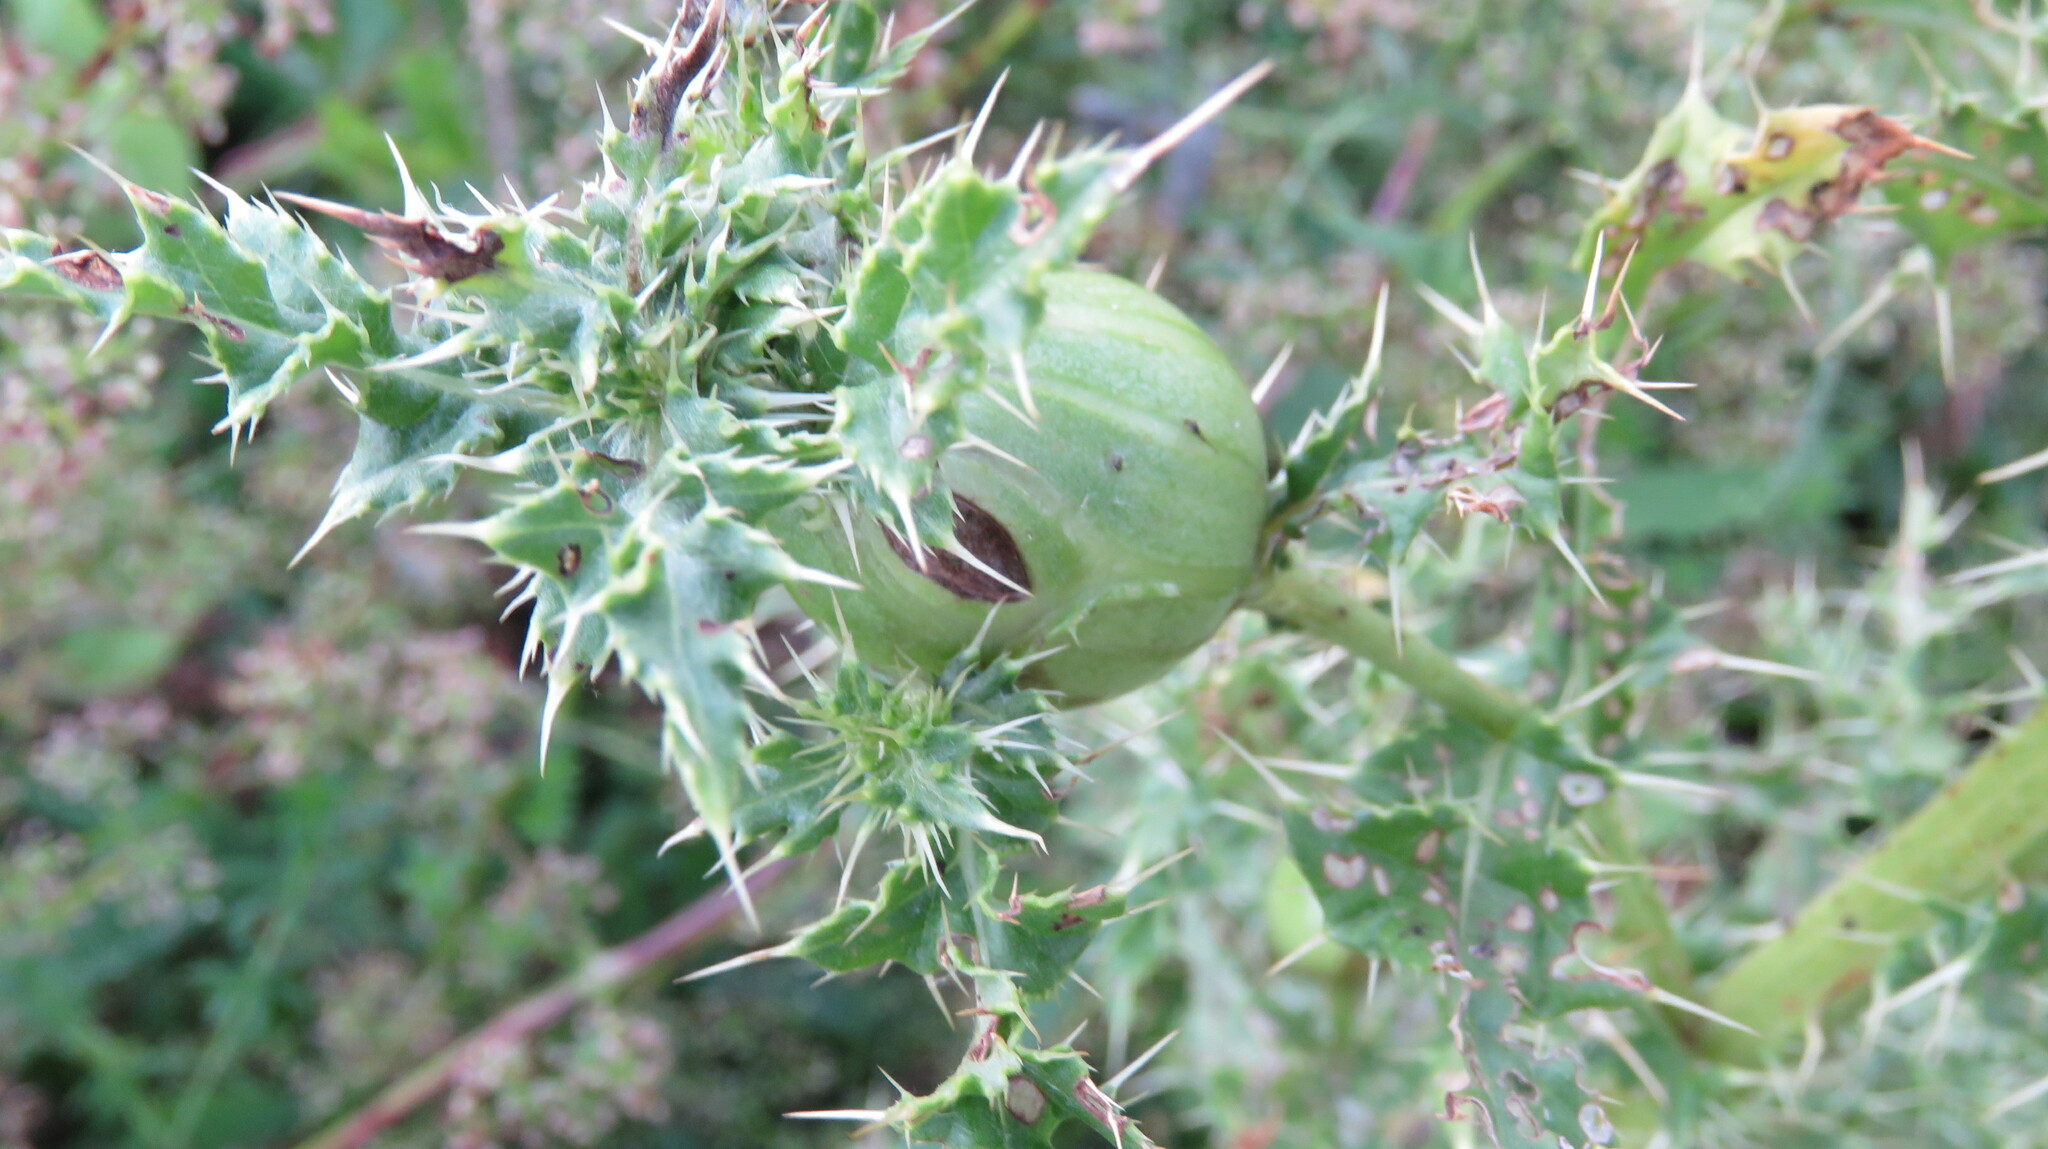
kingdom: Animalia
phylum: Arthropoda
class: Insecta
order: Diptera
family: Tephritidae
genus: Urophora
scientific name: Urophora cardui
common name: Fruit fly
